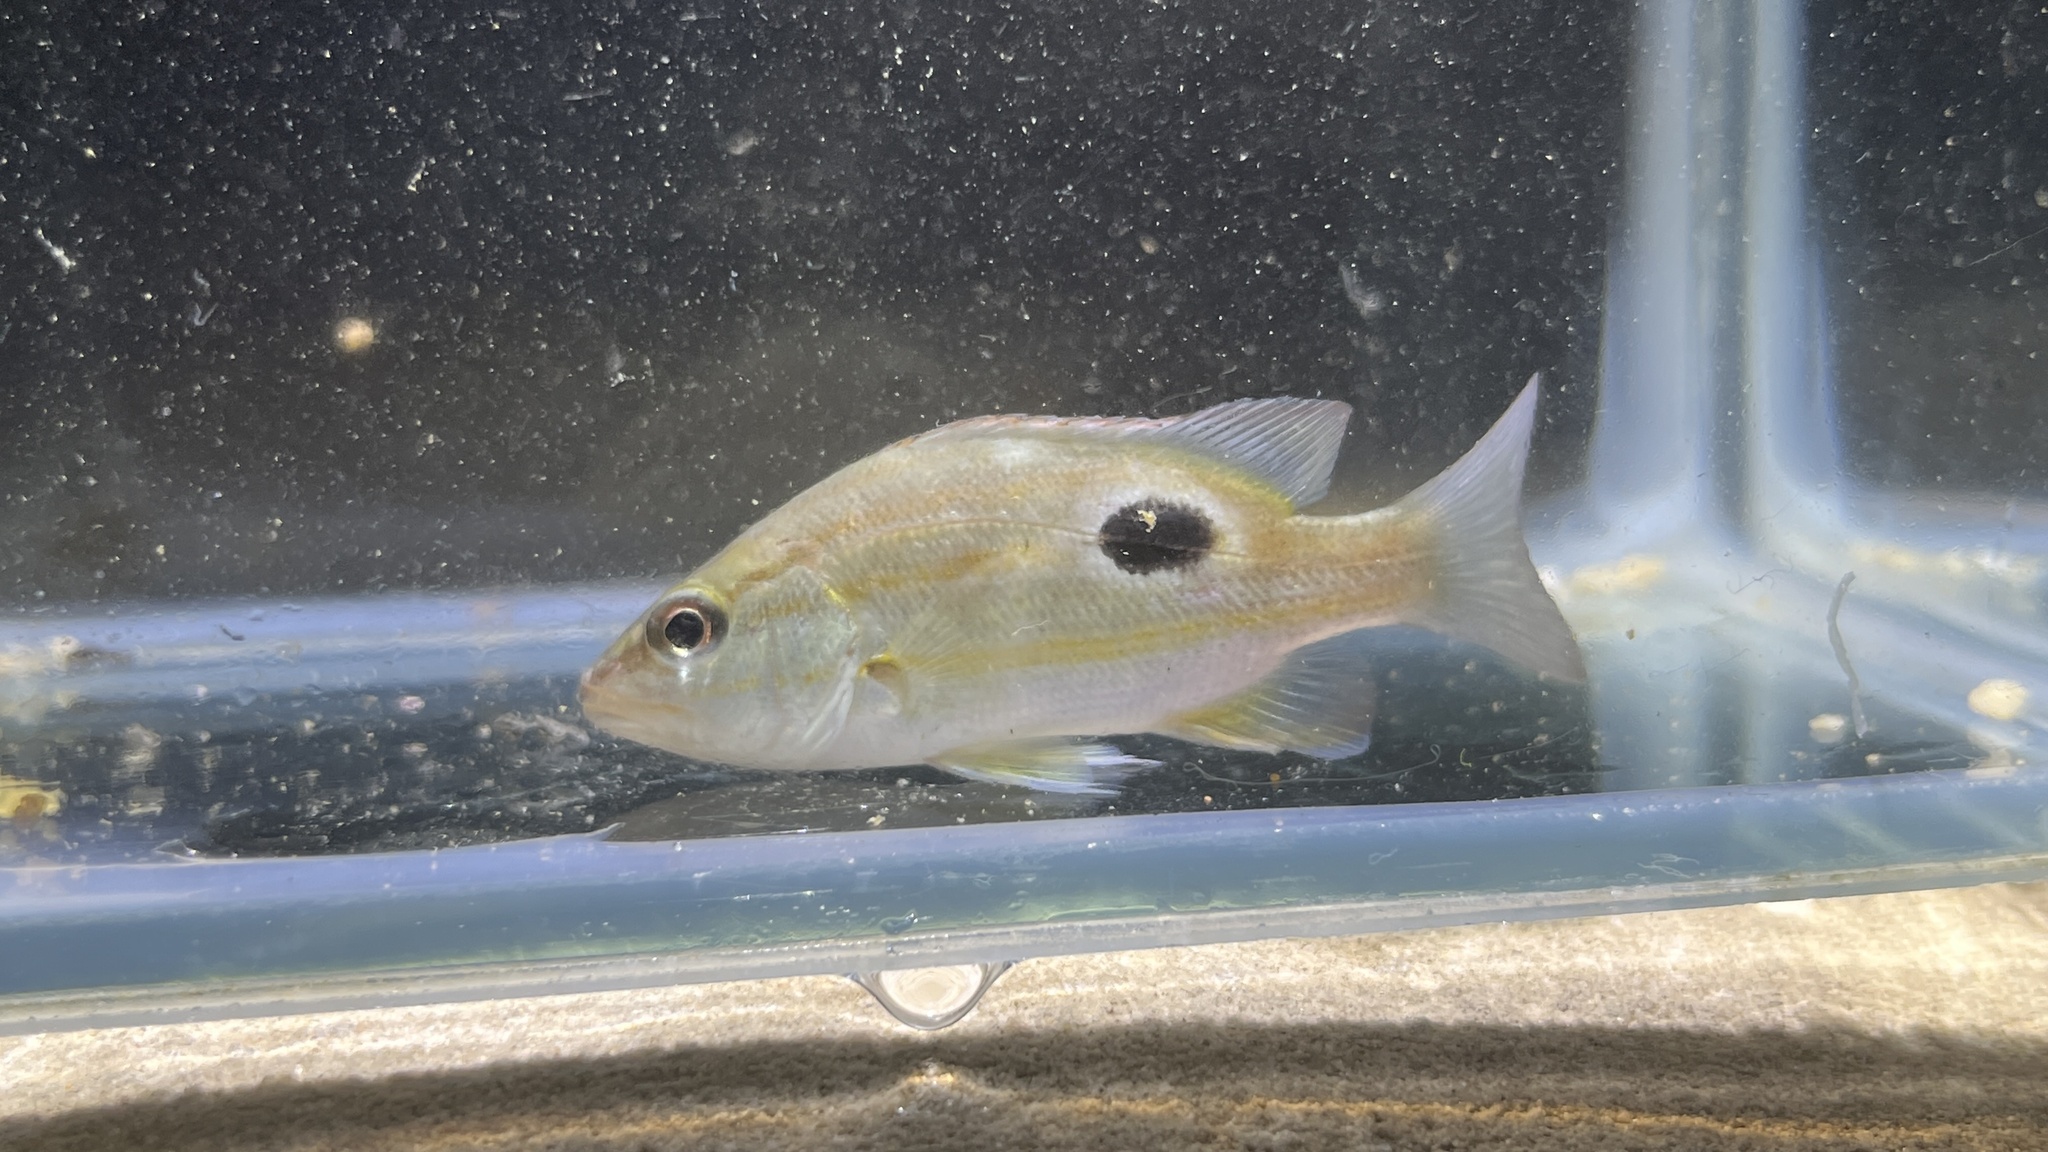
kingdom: Animalia
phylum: Chordata
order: Perciformes
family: Lutjanidae
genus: Lutjanus
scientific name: Lutjanus russellii
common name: Russell's snapper
